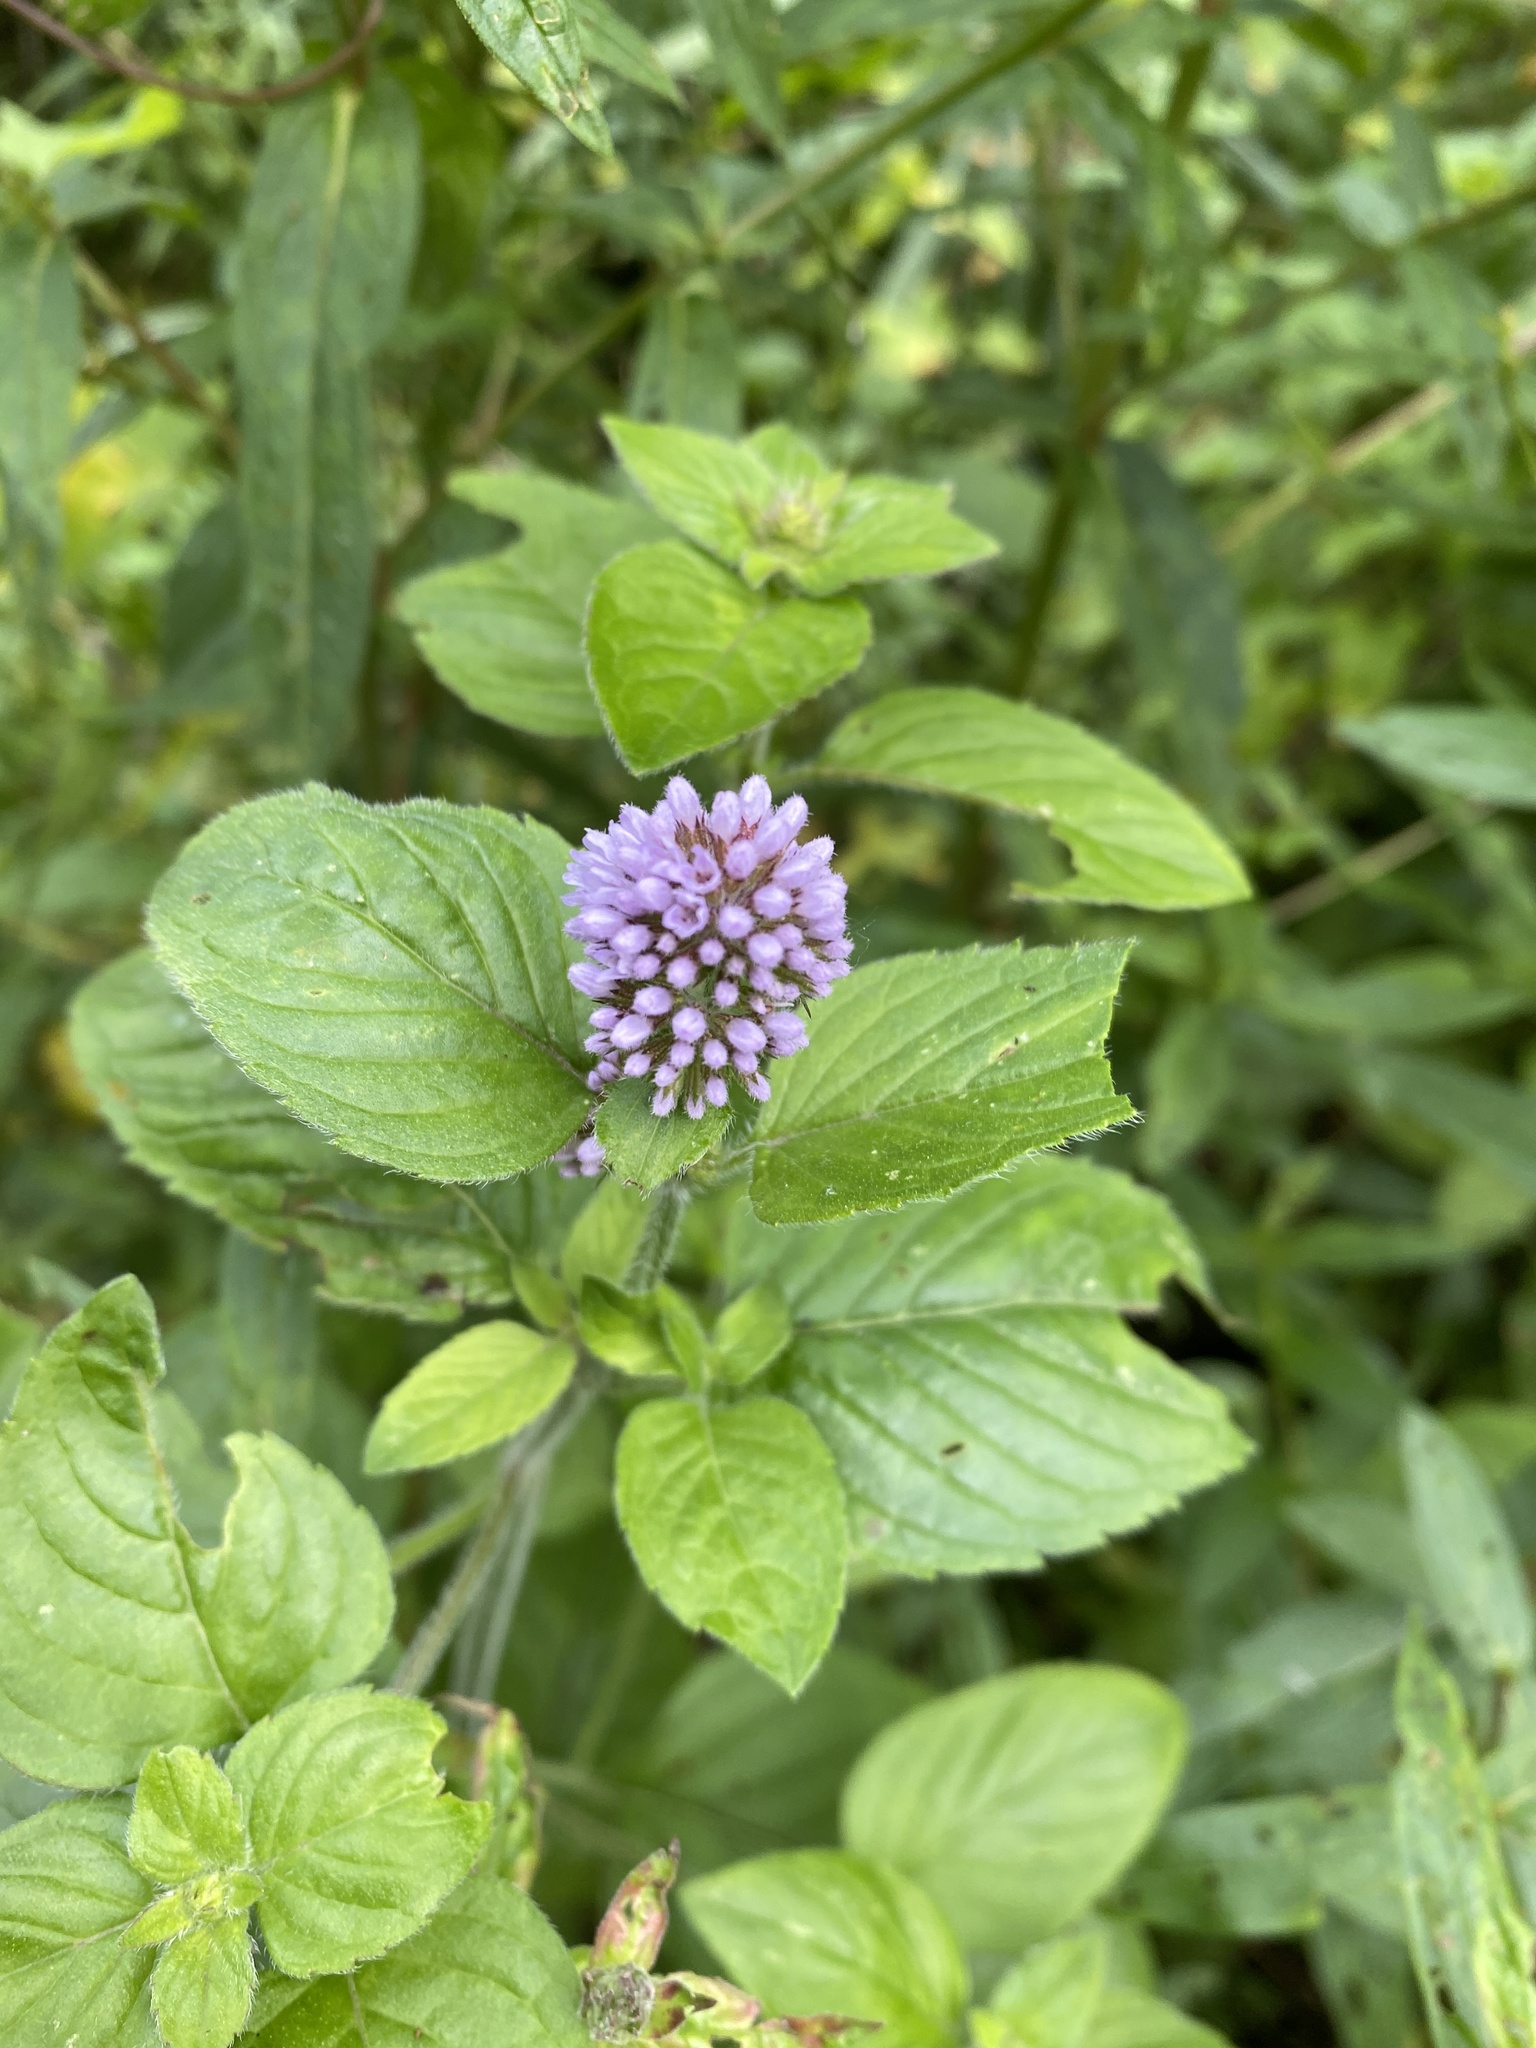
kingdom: Plantae
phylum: Tracheophyta
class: Magnoliopsida
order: Lamiales
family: Lamiaceae
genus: Mentha
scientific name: Mentha aquatica
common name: Water mint
